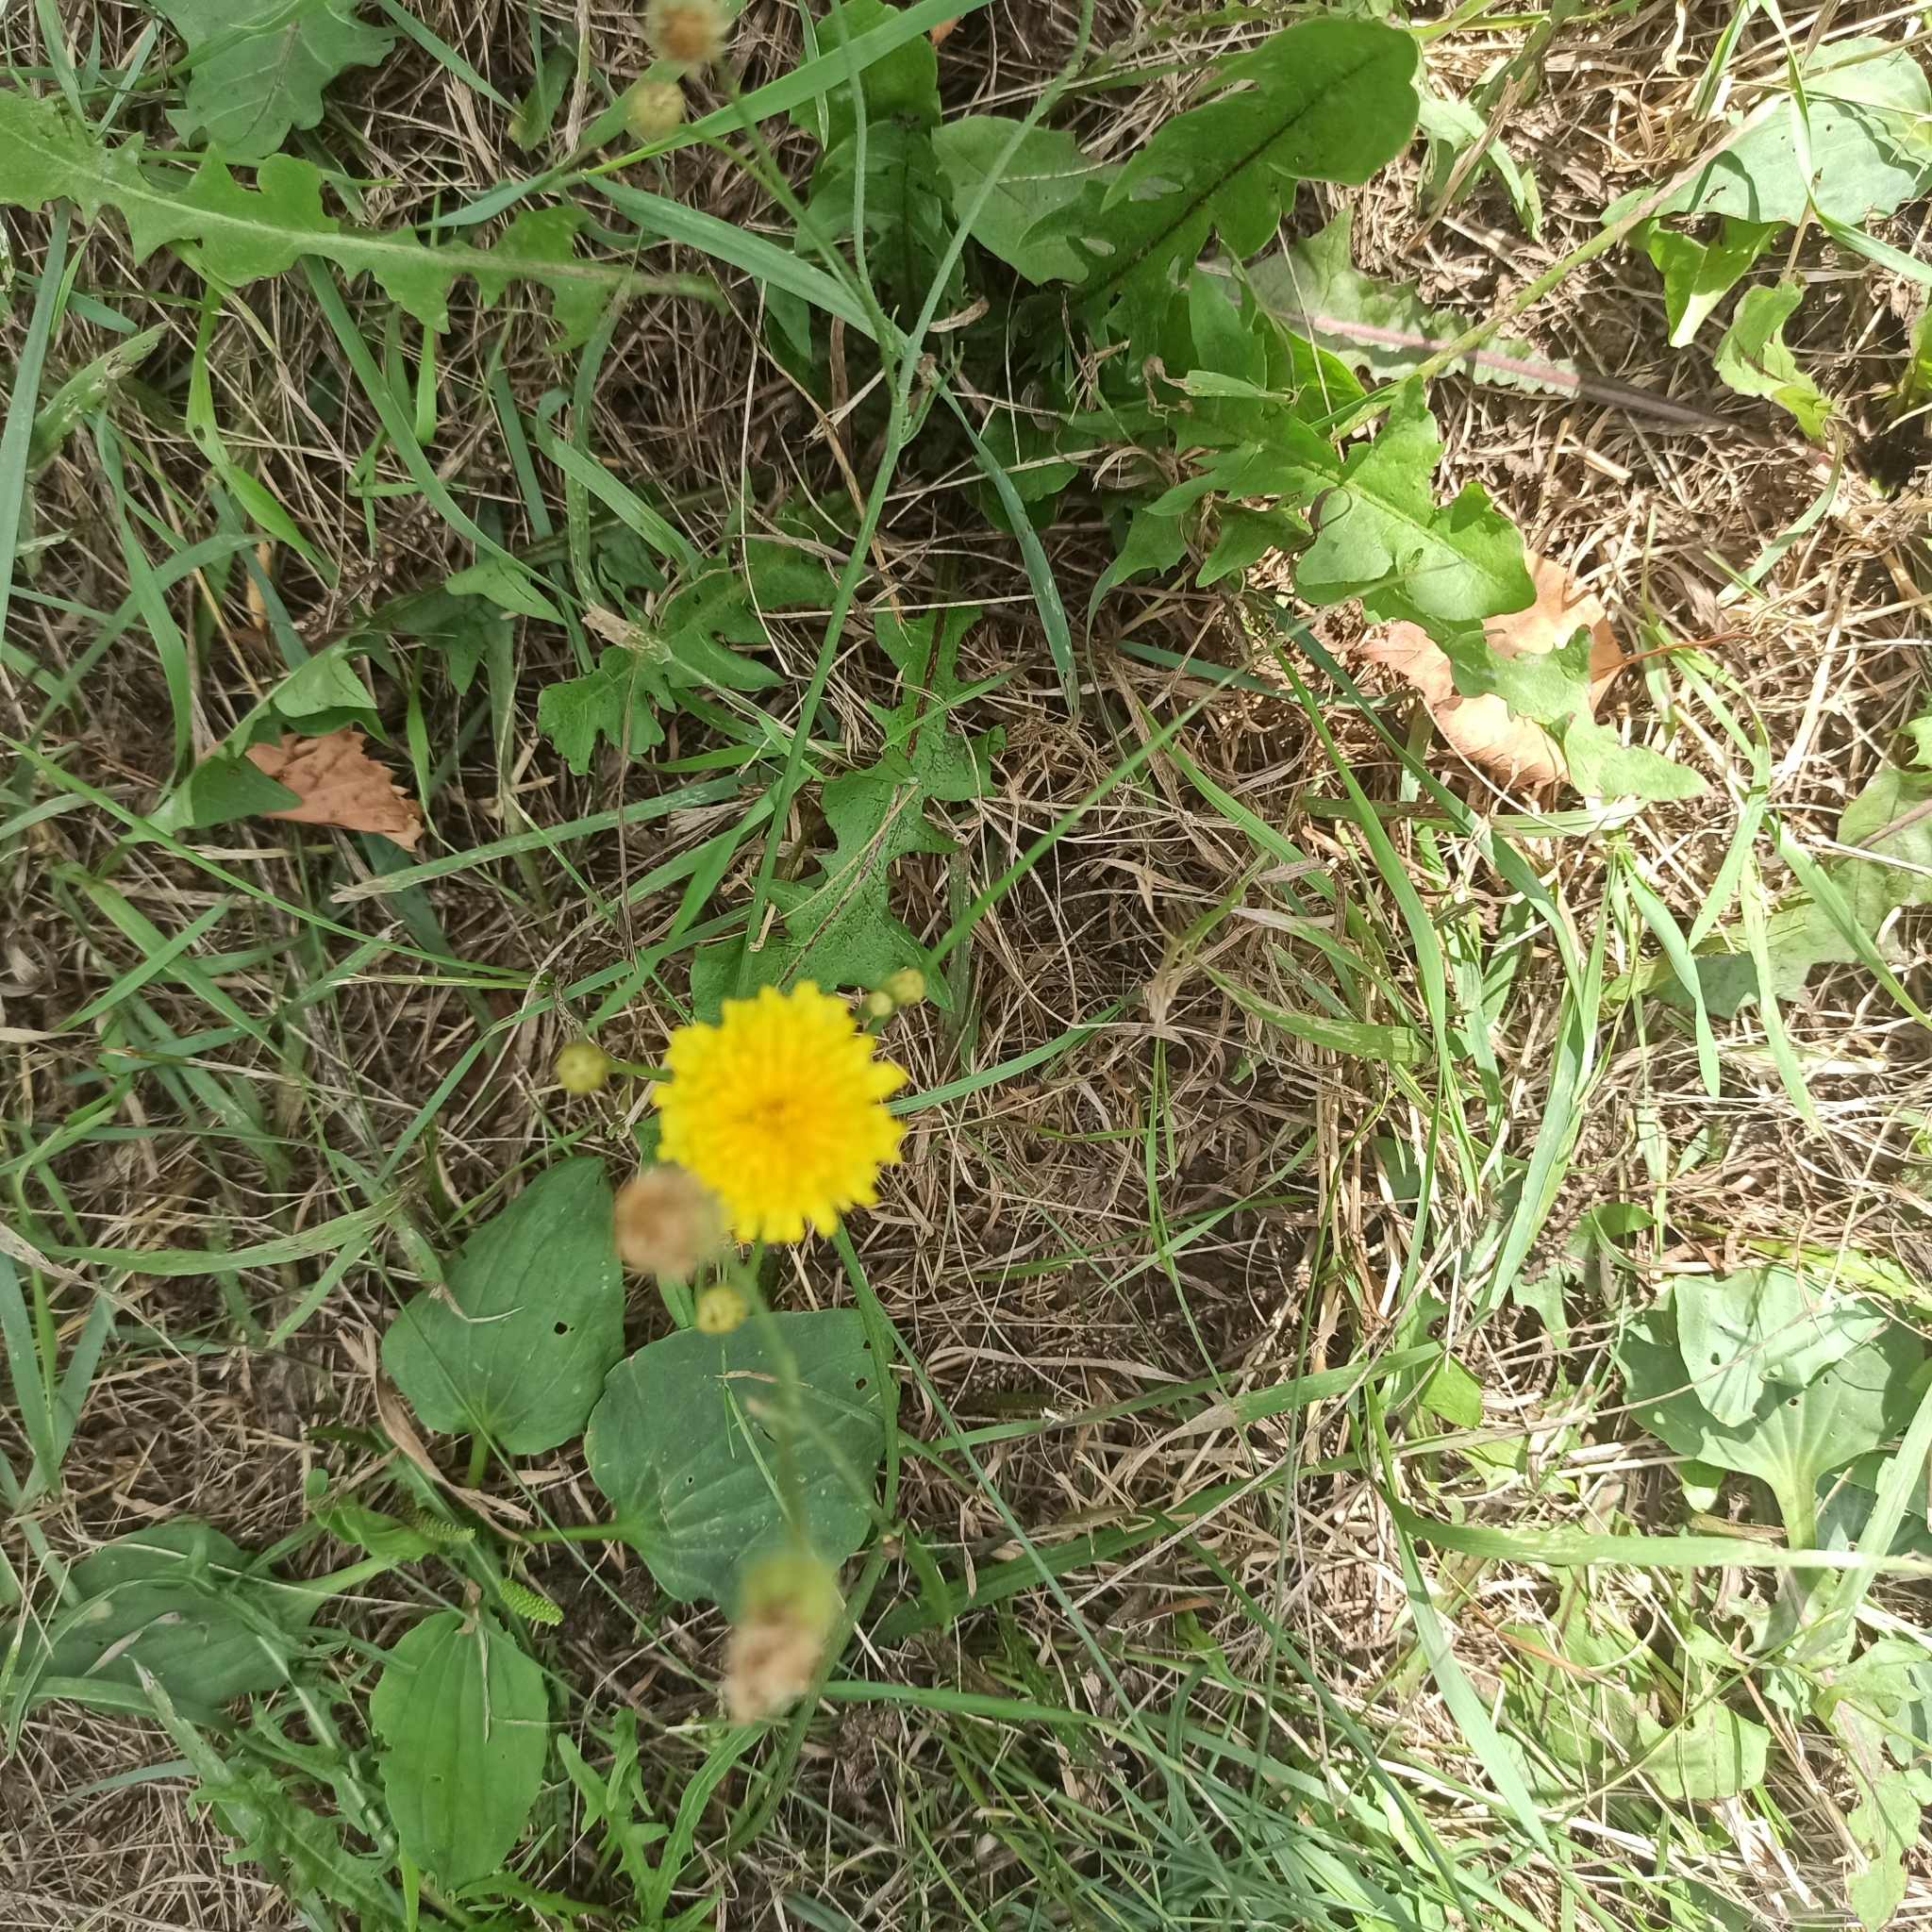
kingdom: Plantae
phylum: Tracheophyta
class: Magnoliopsida
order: Asterales
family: Asteraceae
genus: Scorzoneroides
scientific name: Scorzoneroides autumnalis
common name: Autumn hawkbit
